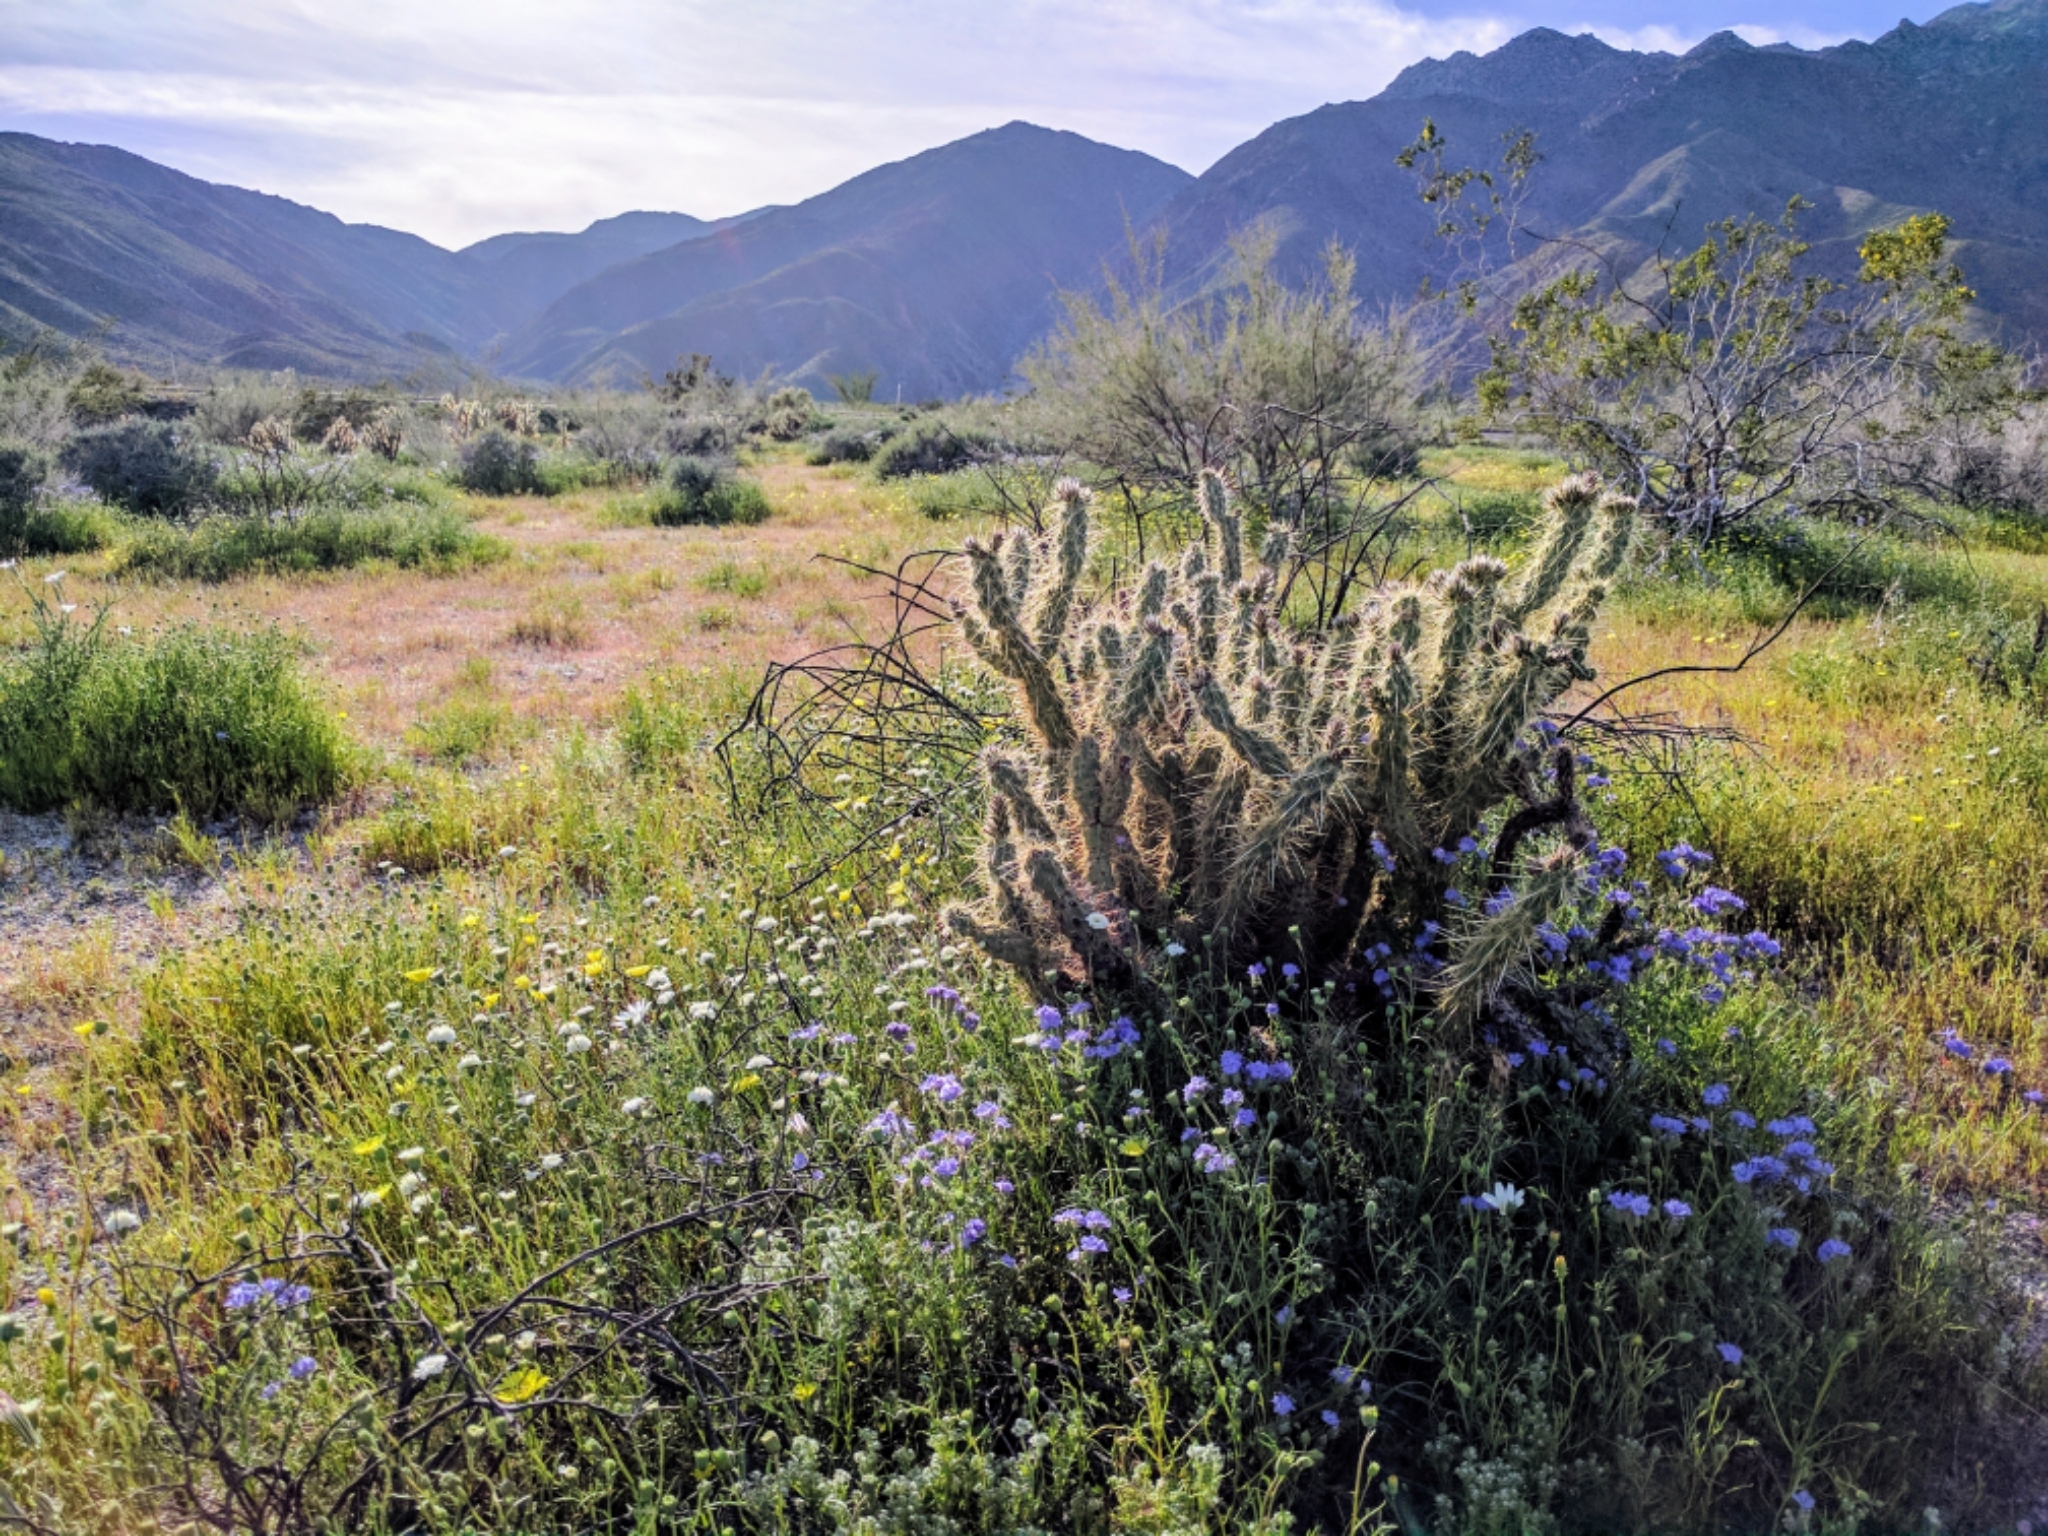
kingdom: Plantae
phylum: Tracheophyta
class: Magnoliopsida
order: Caryophyllales
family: Cactaceae
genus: Cylindropuntia
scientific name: Cylindropuntia echinocarpa
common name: Ground cholla
